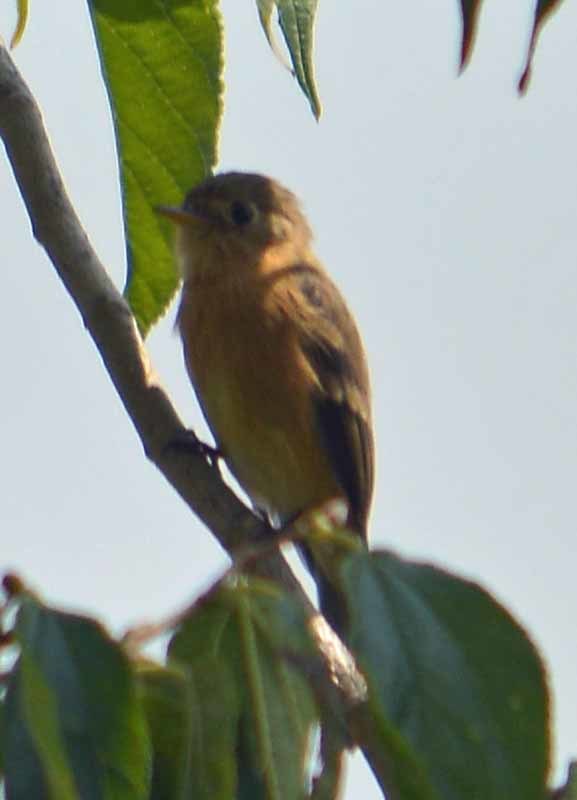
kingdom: Animalia
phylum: Chordata
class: Aves
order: Passeriformes
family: Tyrannidae
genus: Empidonax
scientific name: Empidonax fulvifrons
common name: Buff-breasted flycatcher
